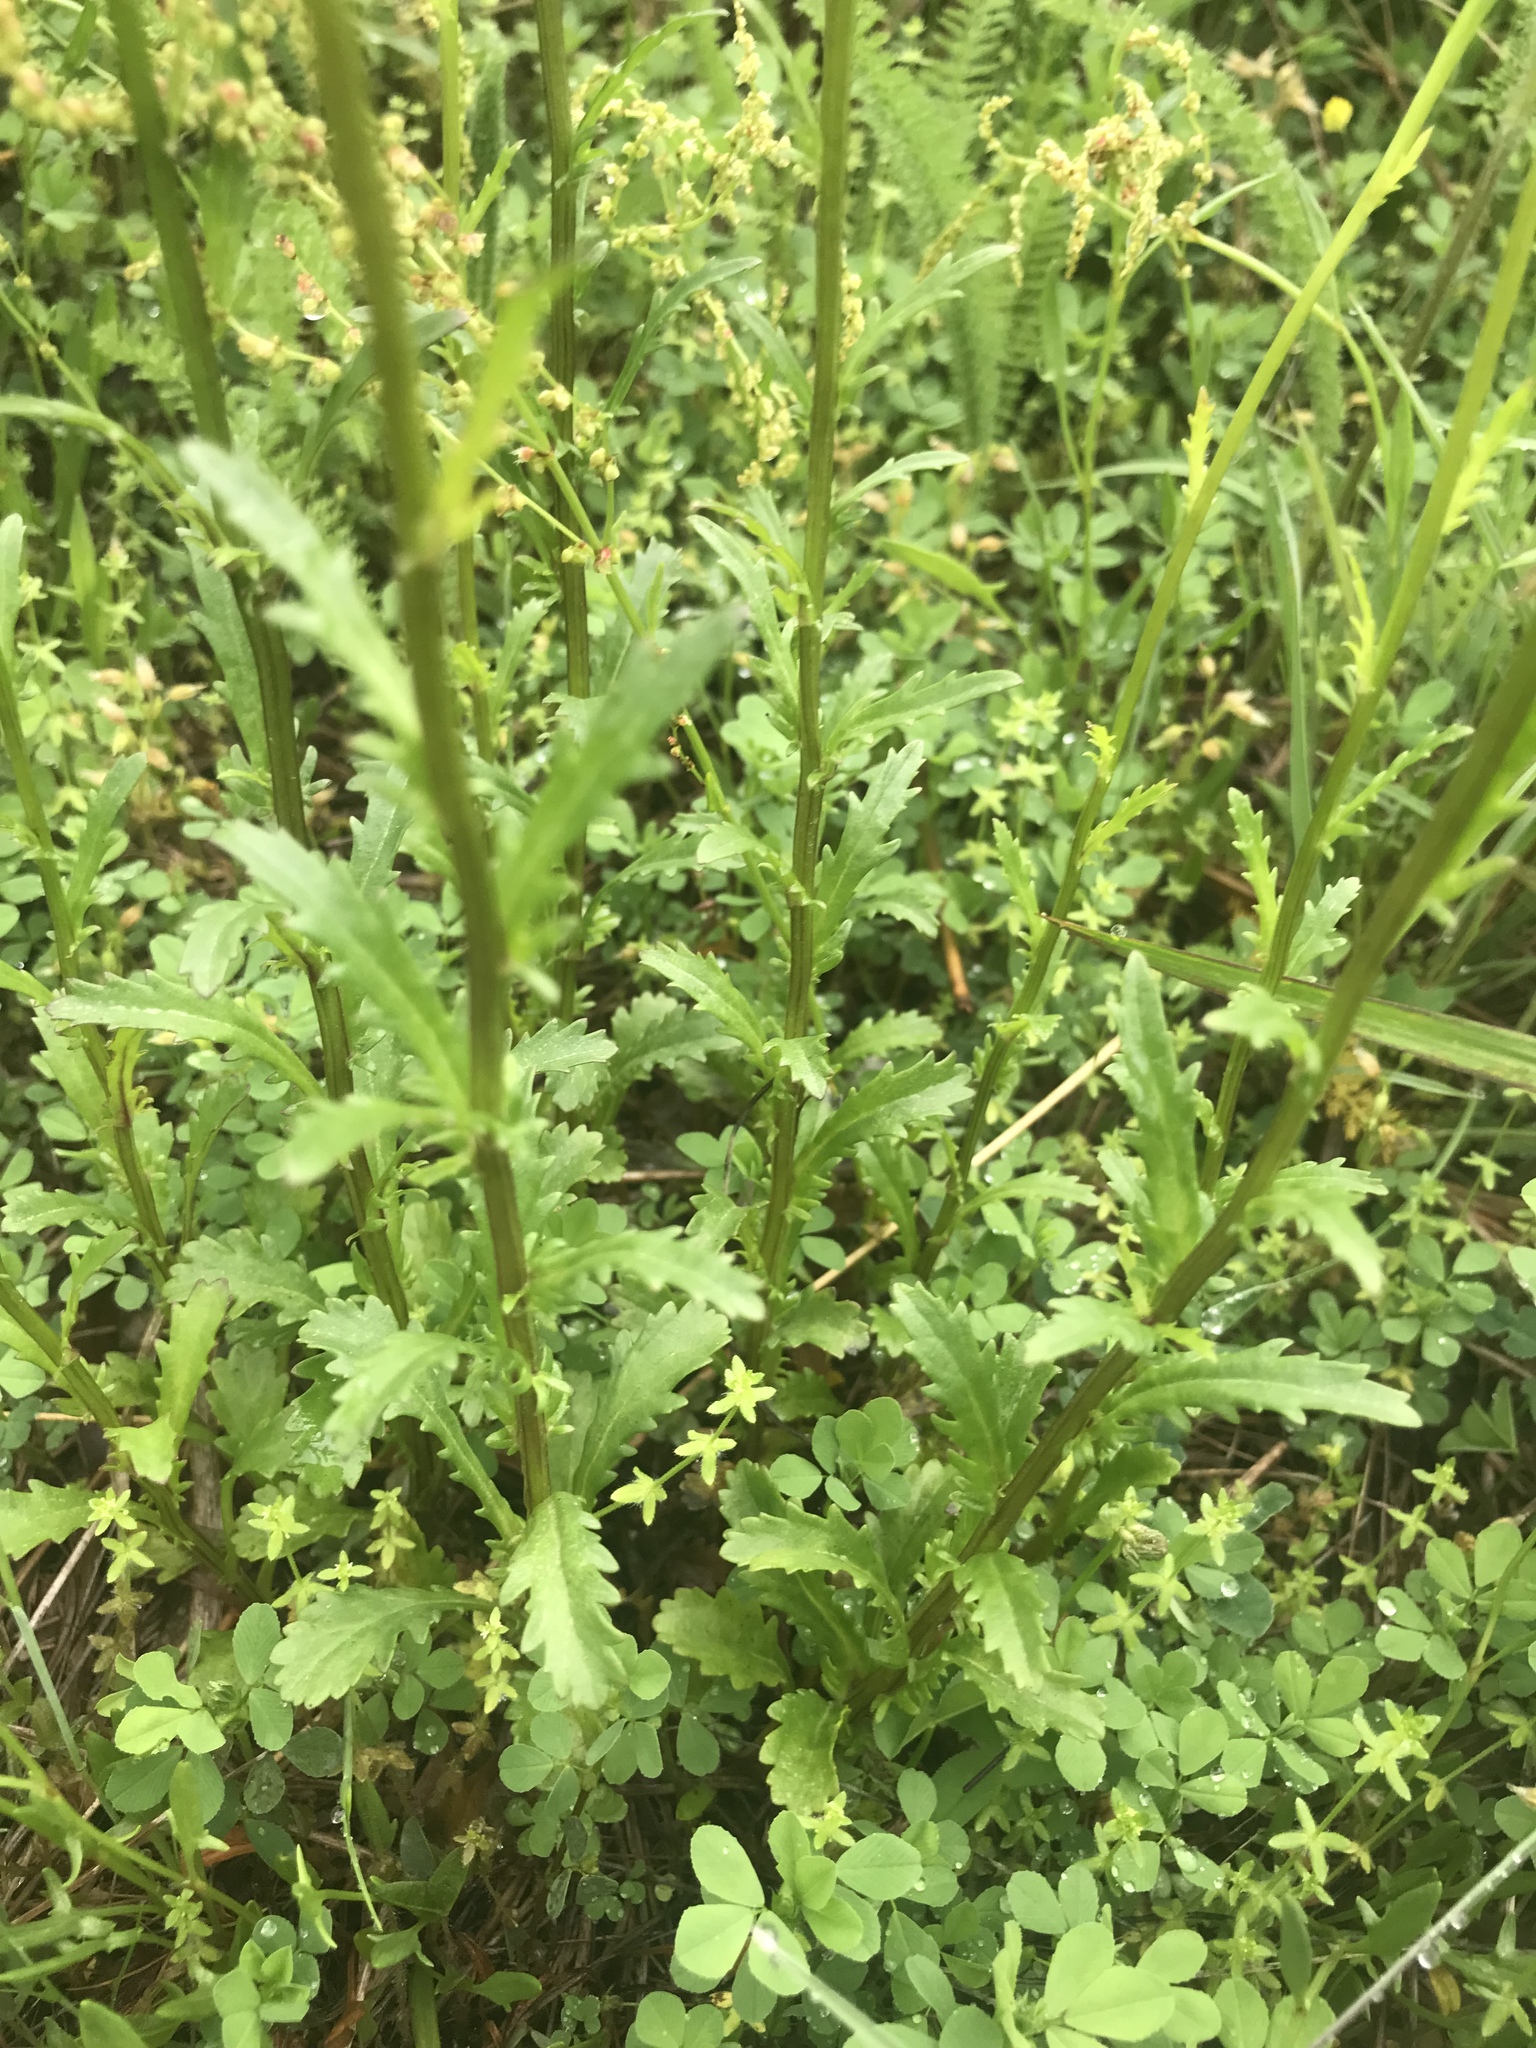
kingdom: Plantae
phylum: Tracheophyta
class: Magnoliopsida
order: Asterales
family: Asteraceae
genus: Leucanthemum
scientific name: Leucanthemum vulgare
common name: Oxeye daisy
